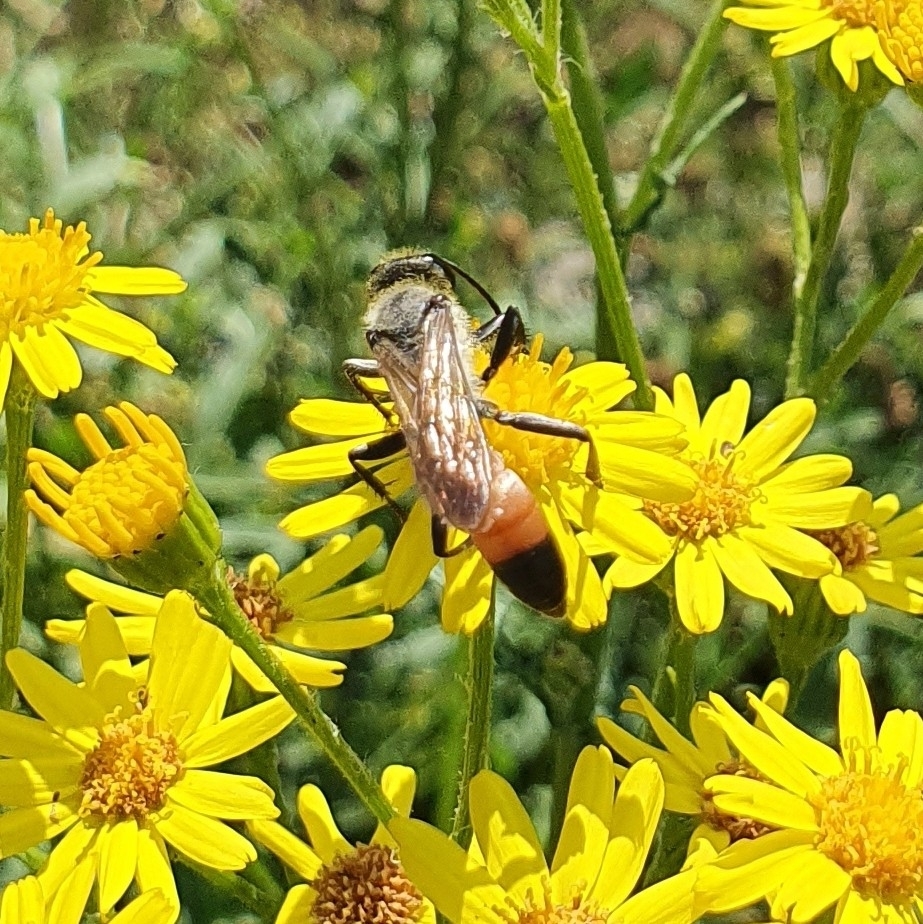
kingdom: Animalia
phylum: Arthropoda
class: Insecta
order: Hymenoptera
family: Sphecidae
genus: Sphex
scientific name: Sphex funerarius
